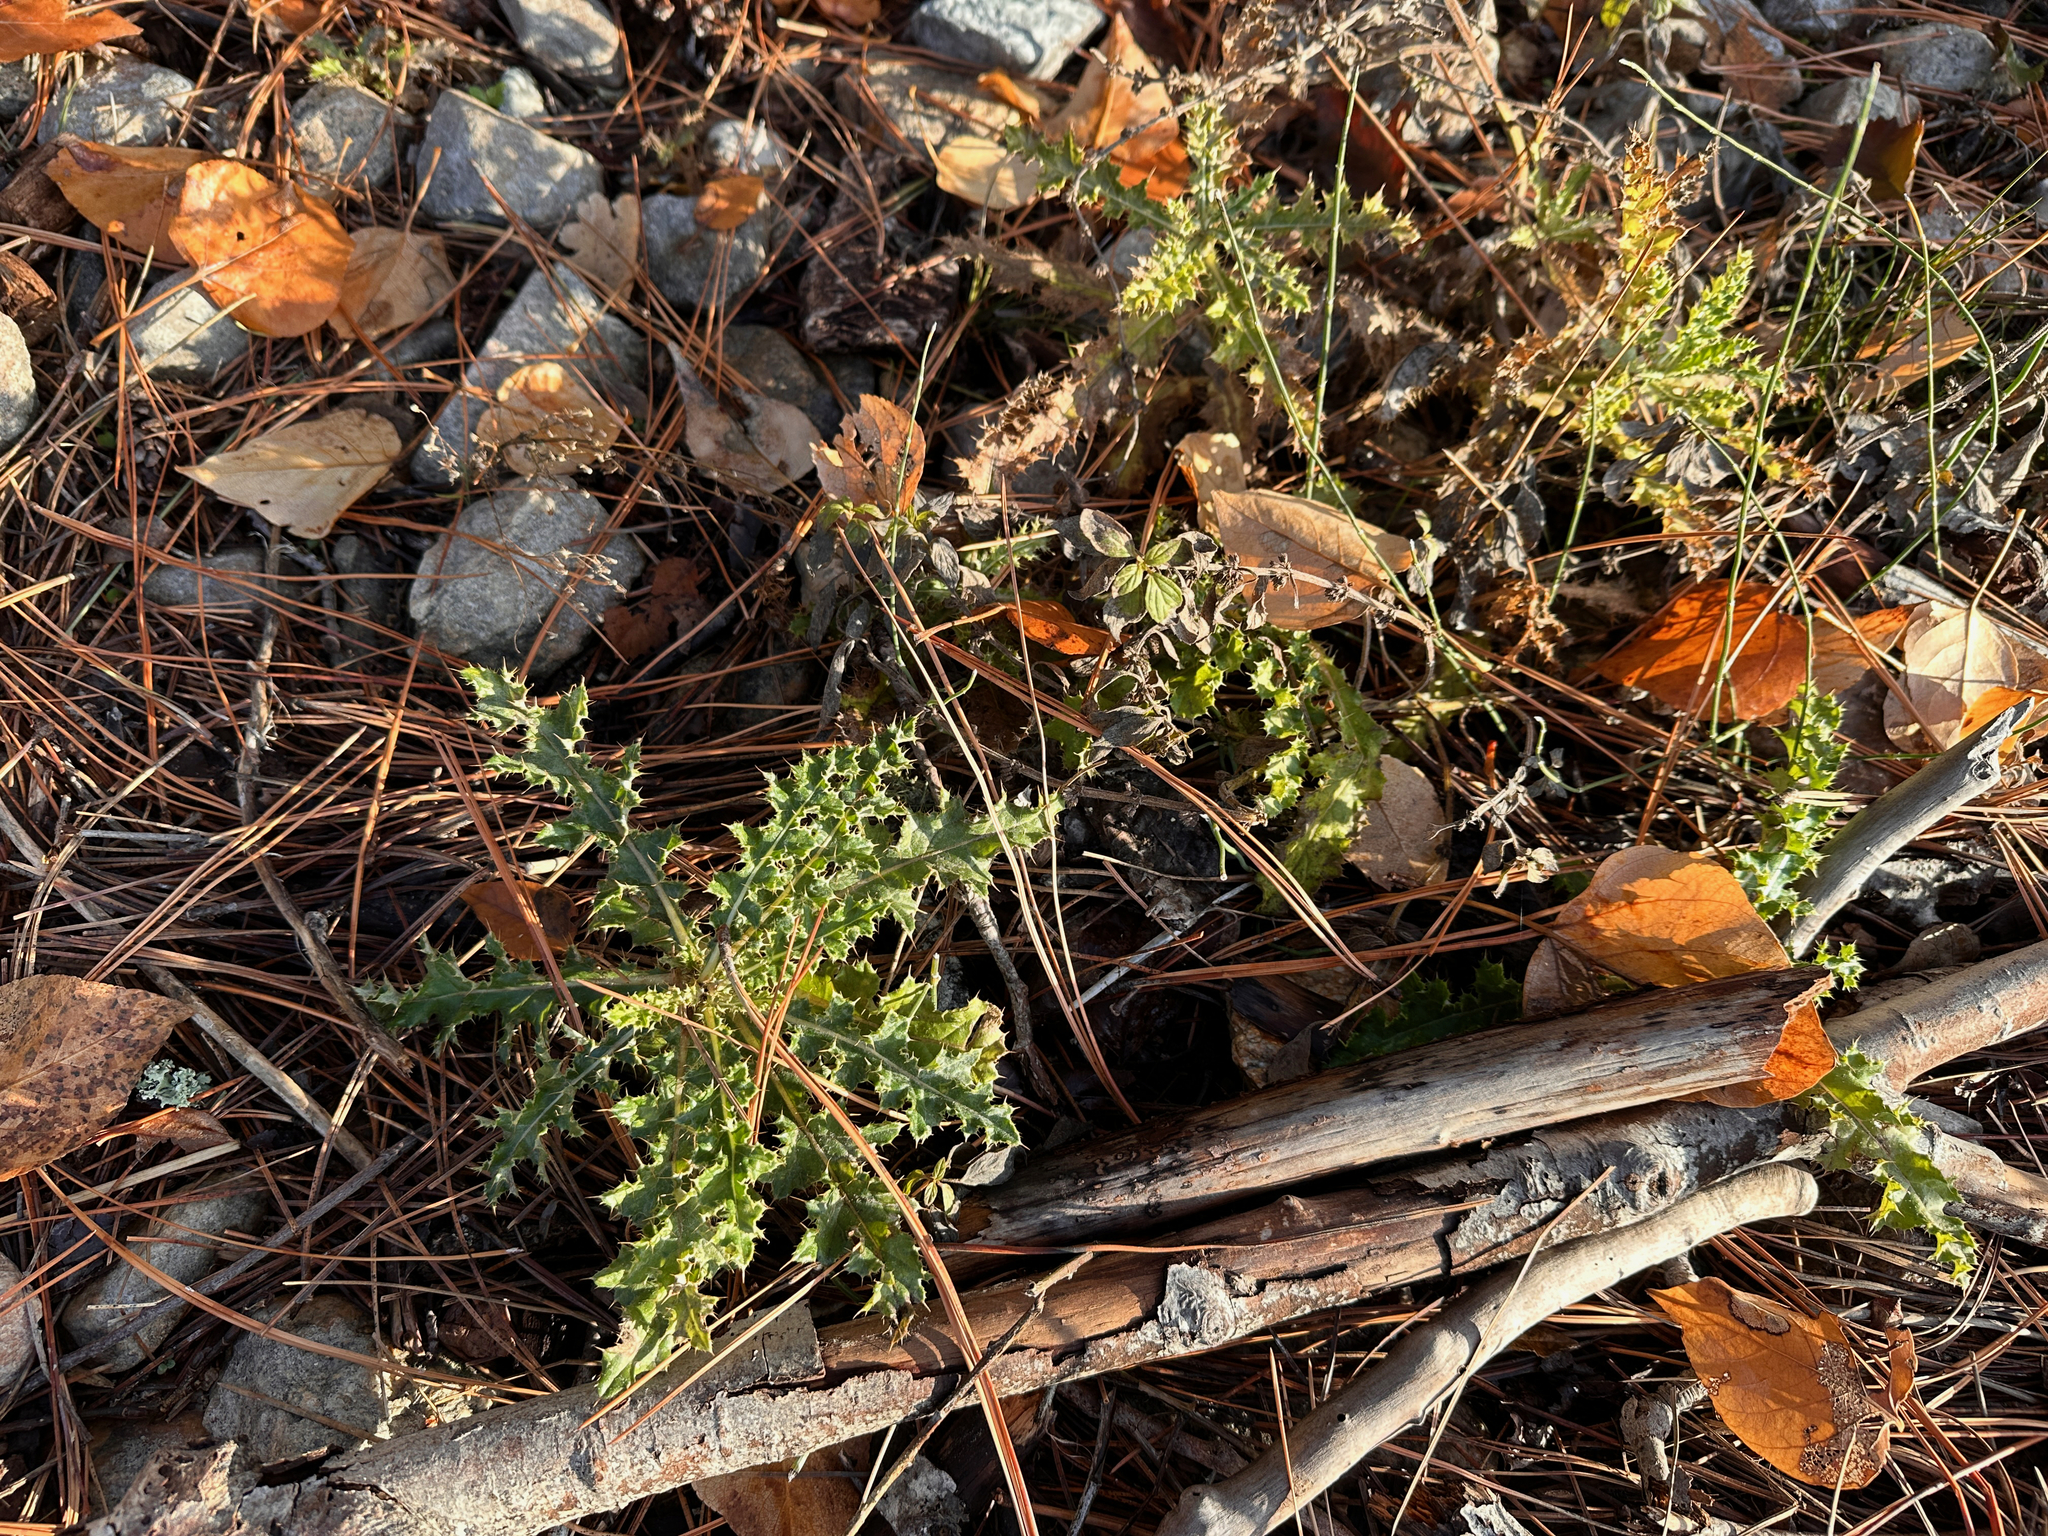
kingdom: Plantae
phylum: Tracheophyta
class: Magnoliopsida
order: Asterales
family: Asteraceae
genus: Cirsium
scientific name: Cirsium arvense
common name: Creeping thistle
